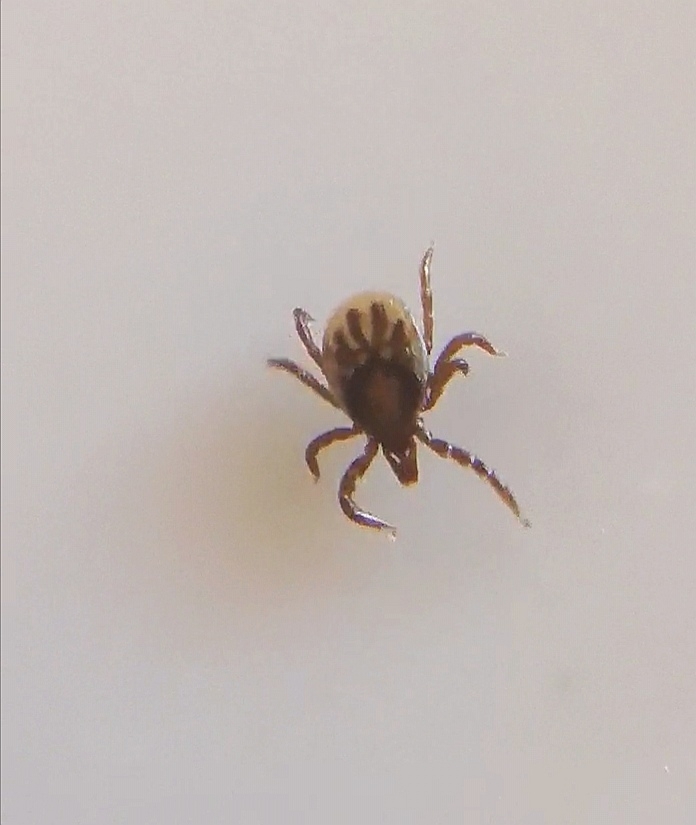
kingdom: Animalia
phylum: Arthropoda
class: Arachnida
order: Ixodida
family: Ixodidae
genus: Ixodes
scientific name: Ixodes ricinus
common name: Castor bean tick
